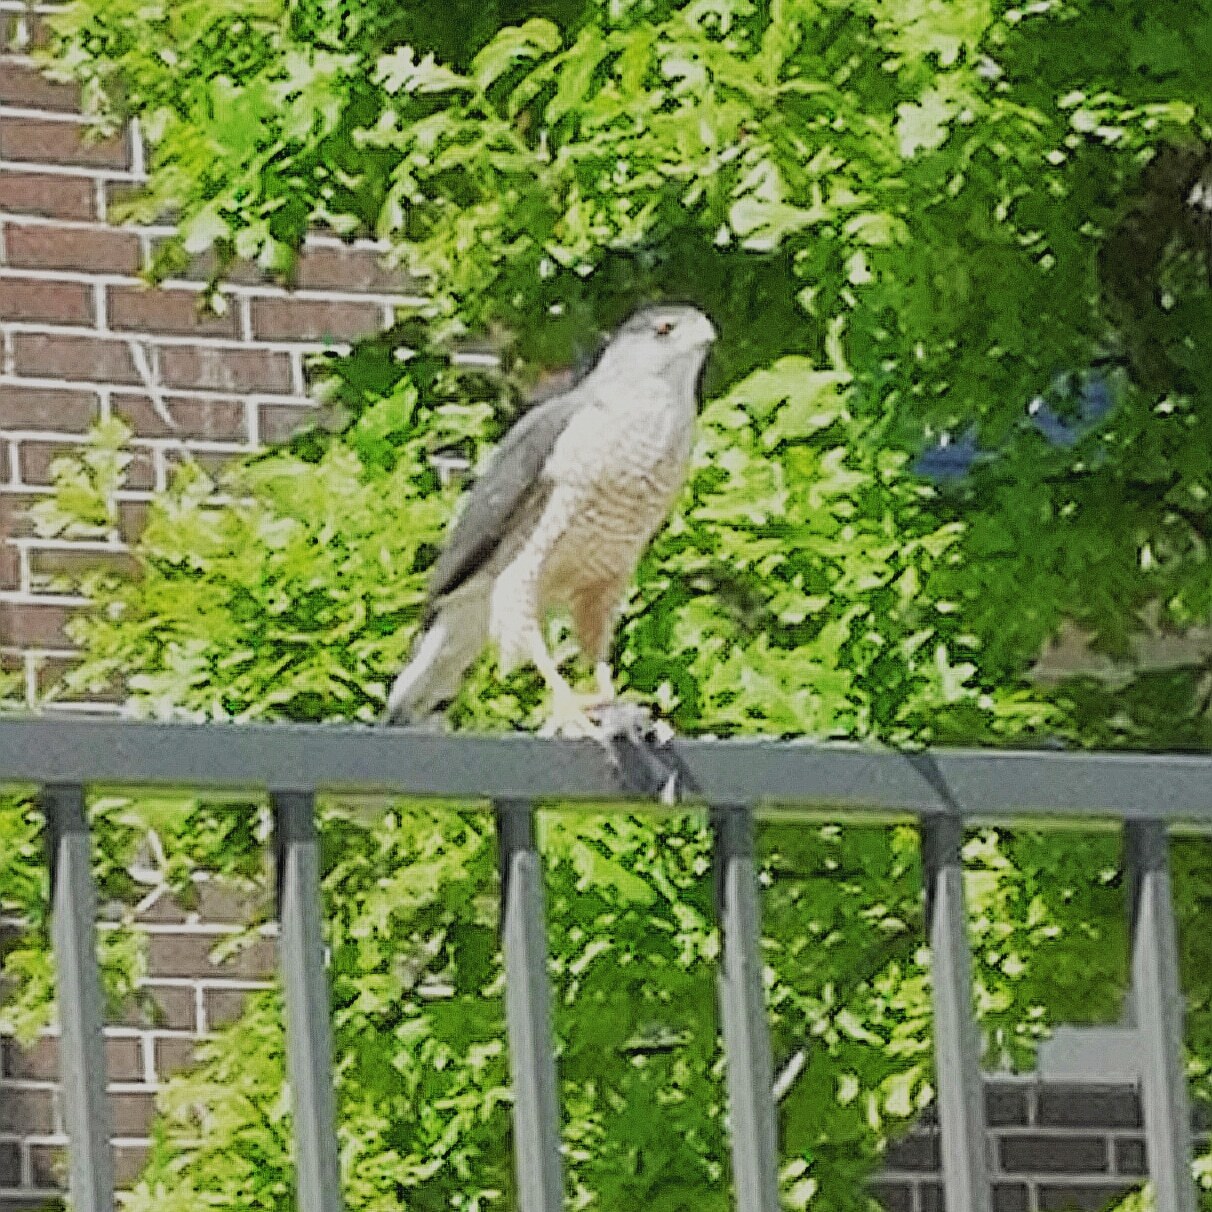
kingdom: Animalia
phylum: Chordata
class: Aves
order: Accipitriformes
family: Accipitridae
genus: Accipiter
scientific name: Accipiter cooperii
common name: Cooper's hawk
